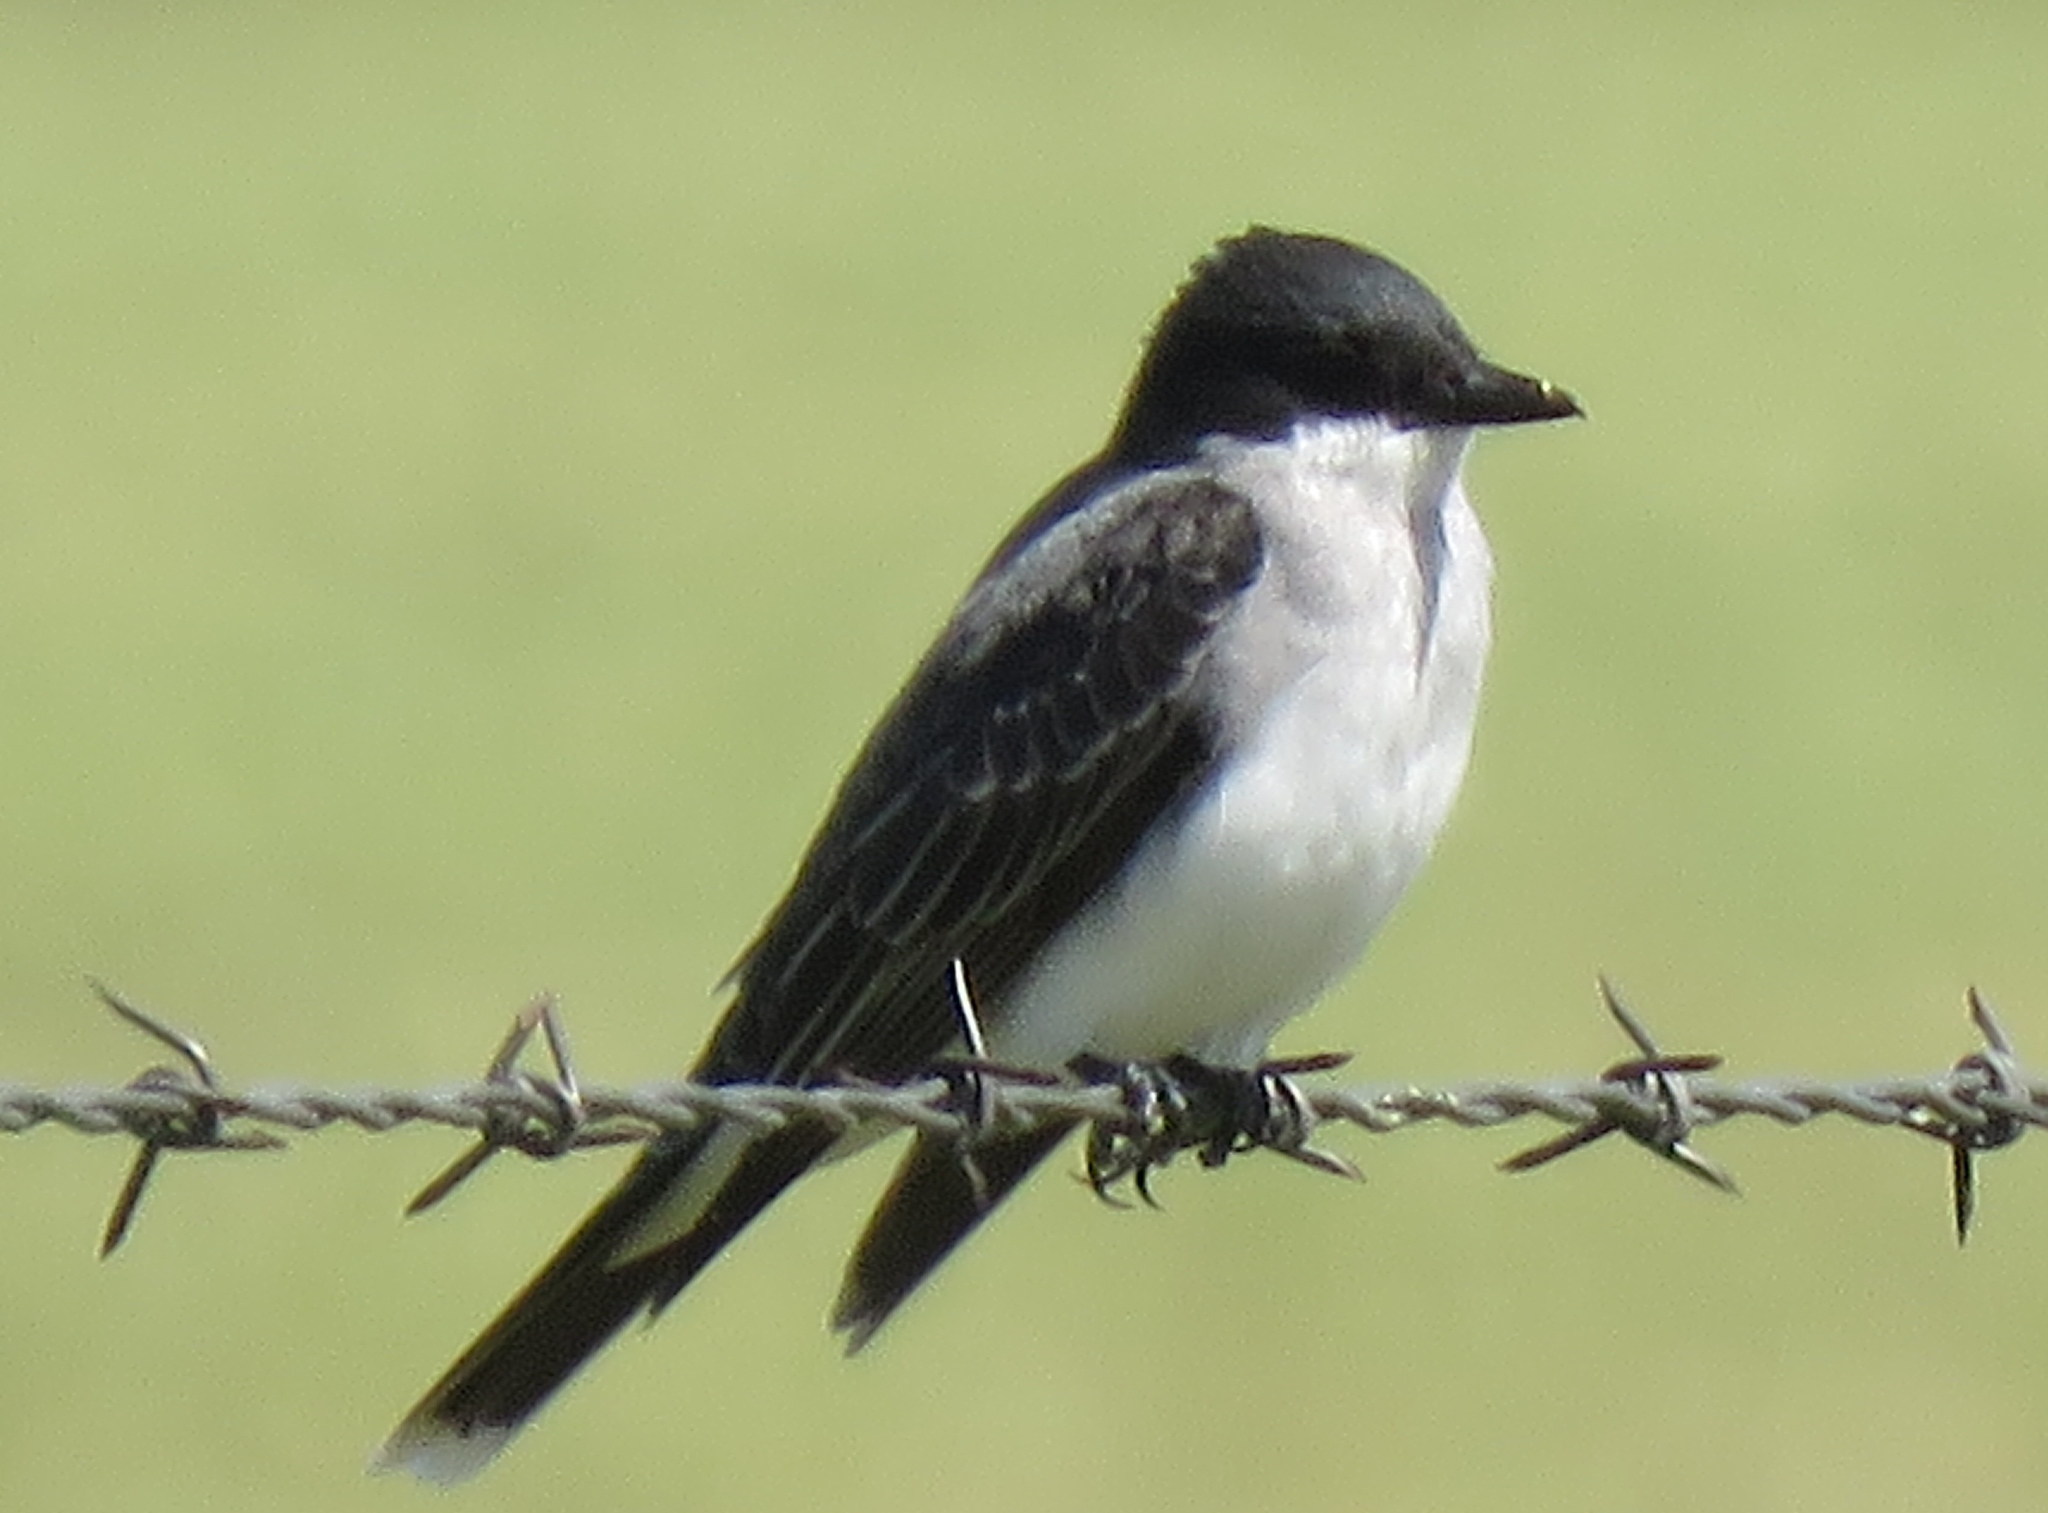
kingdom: Animalia
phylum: Chordata
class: Aves
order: Passeriformes
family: Tyrannidae
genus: Tyrannus
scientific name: Tyrannus tyrannus
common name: Eastern kingbird
